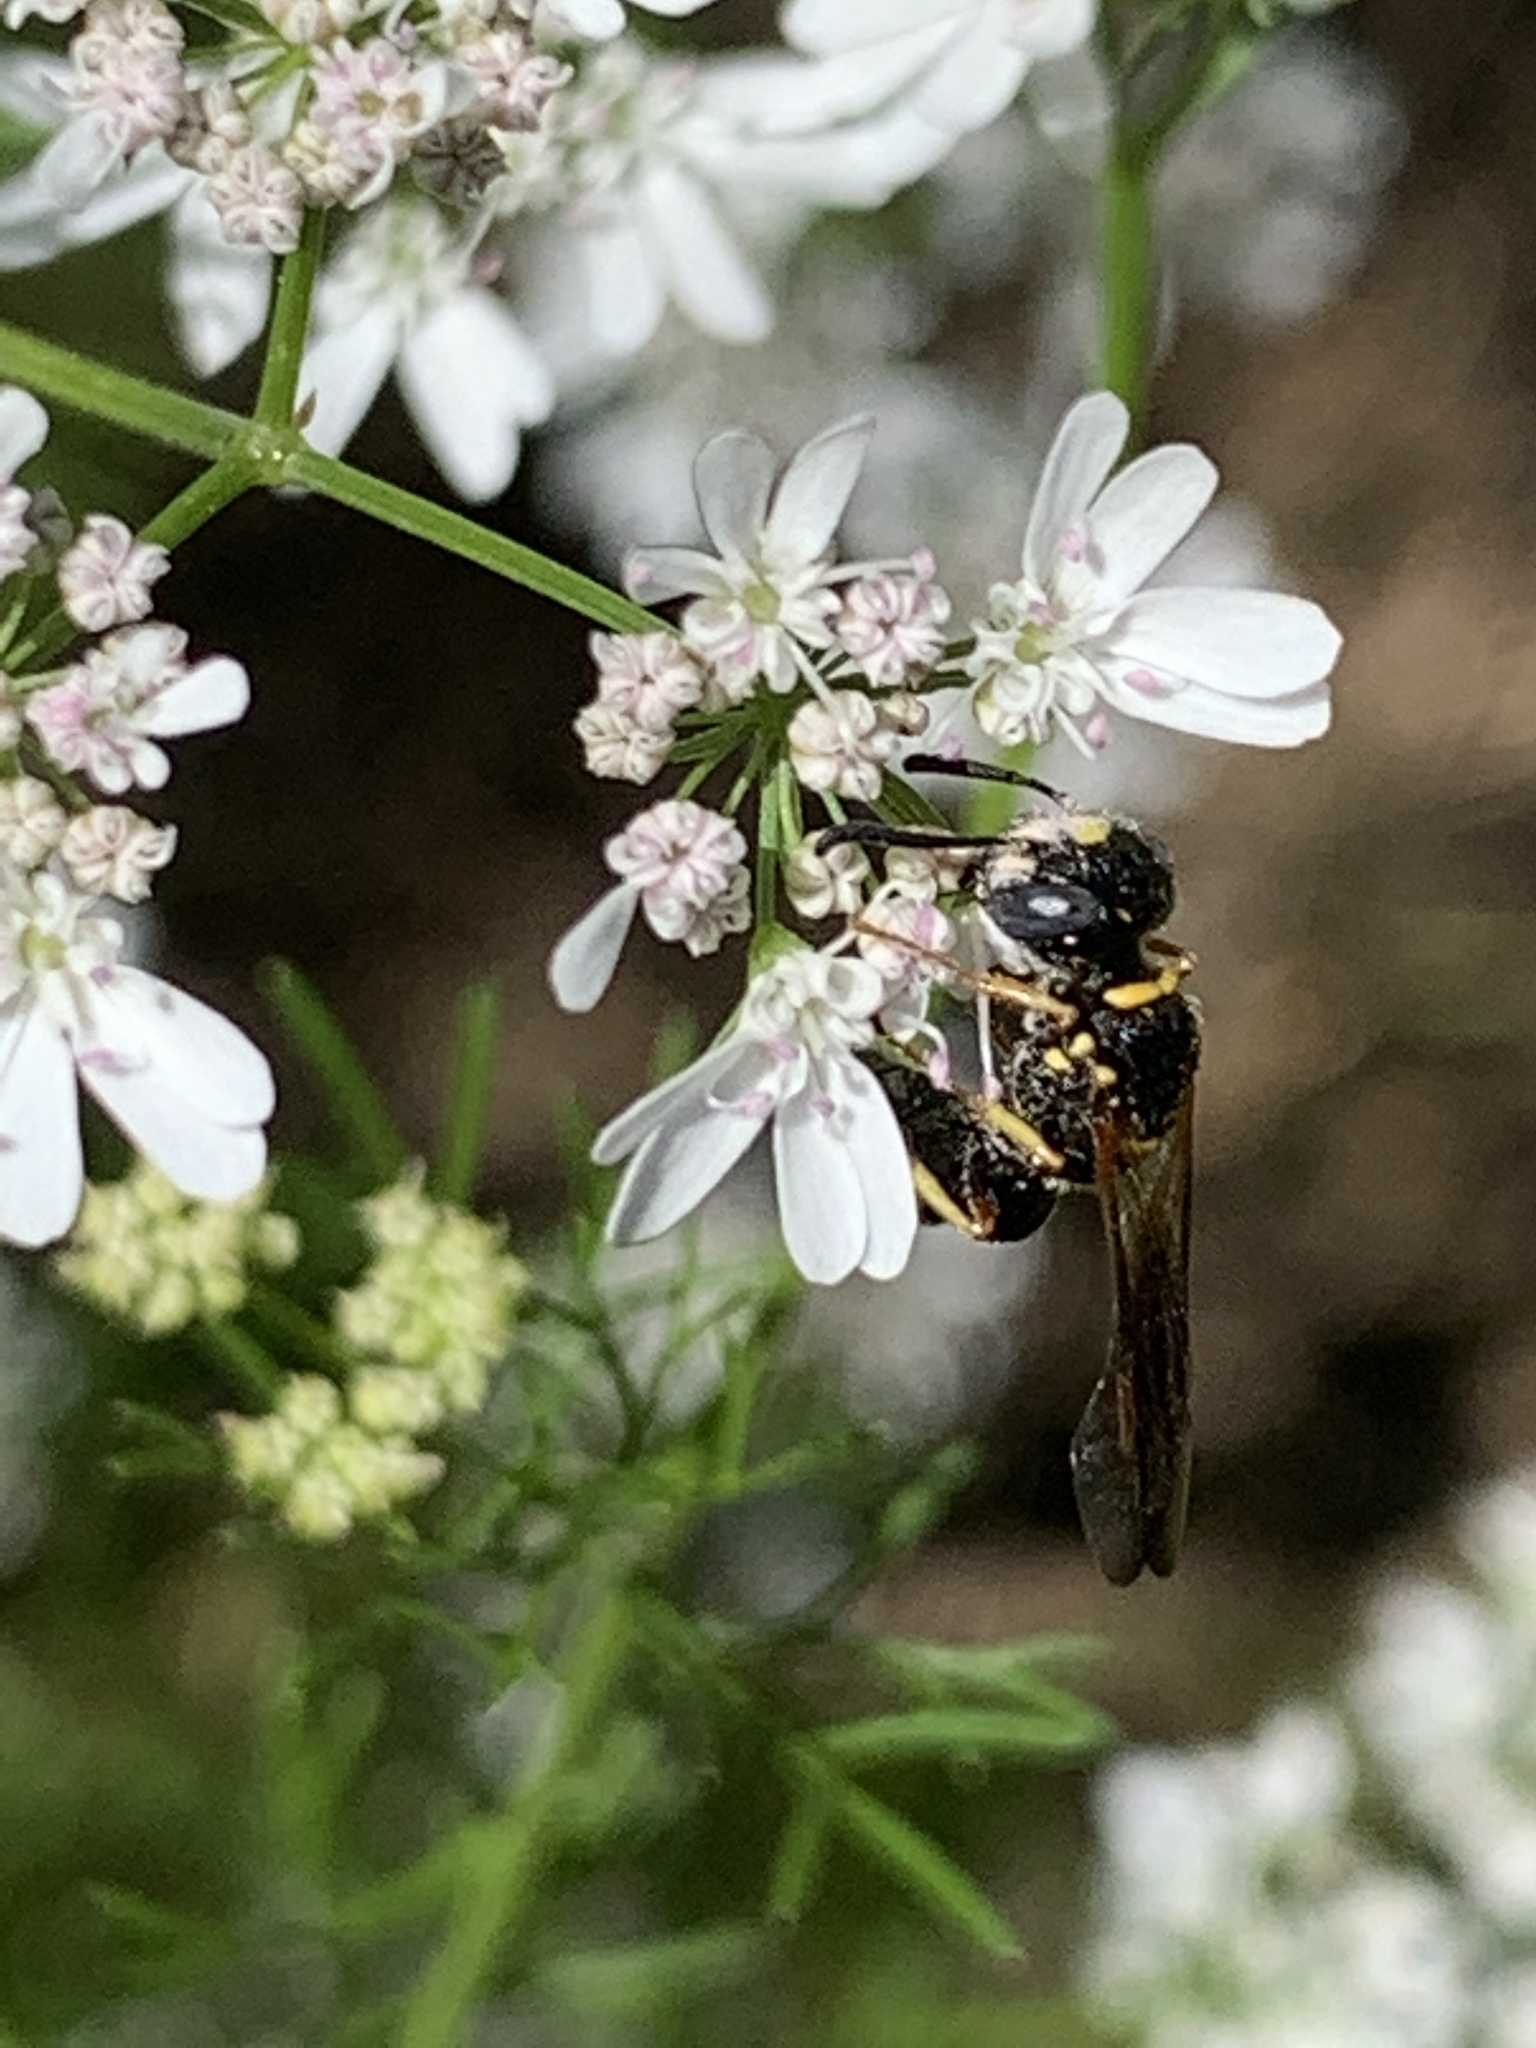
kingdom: Animalia
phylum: Arthropoda
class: Insecta
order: Hymenoptera
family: Crabronidae
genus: Philanthus
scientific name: Philanthus gibbosus
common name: Humped beewolf
